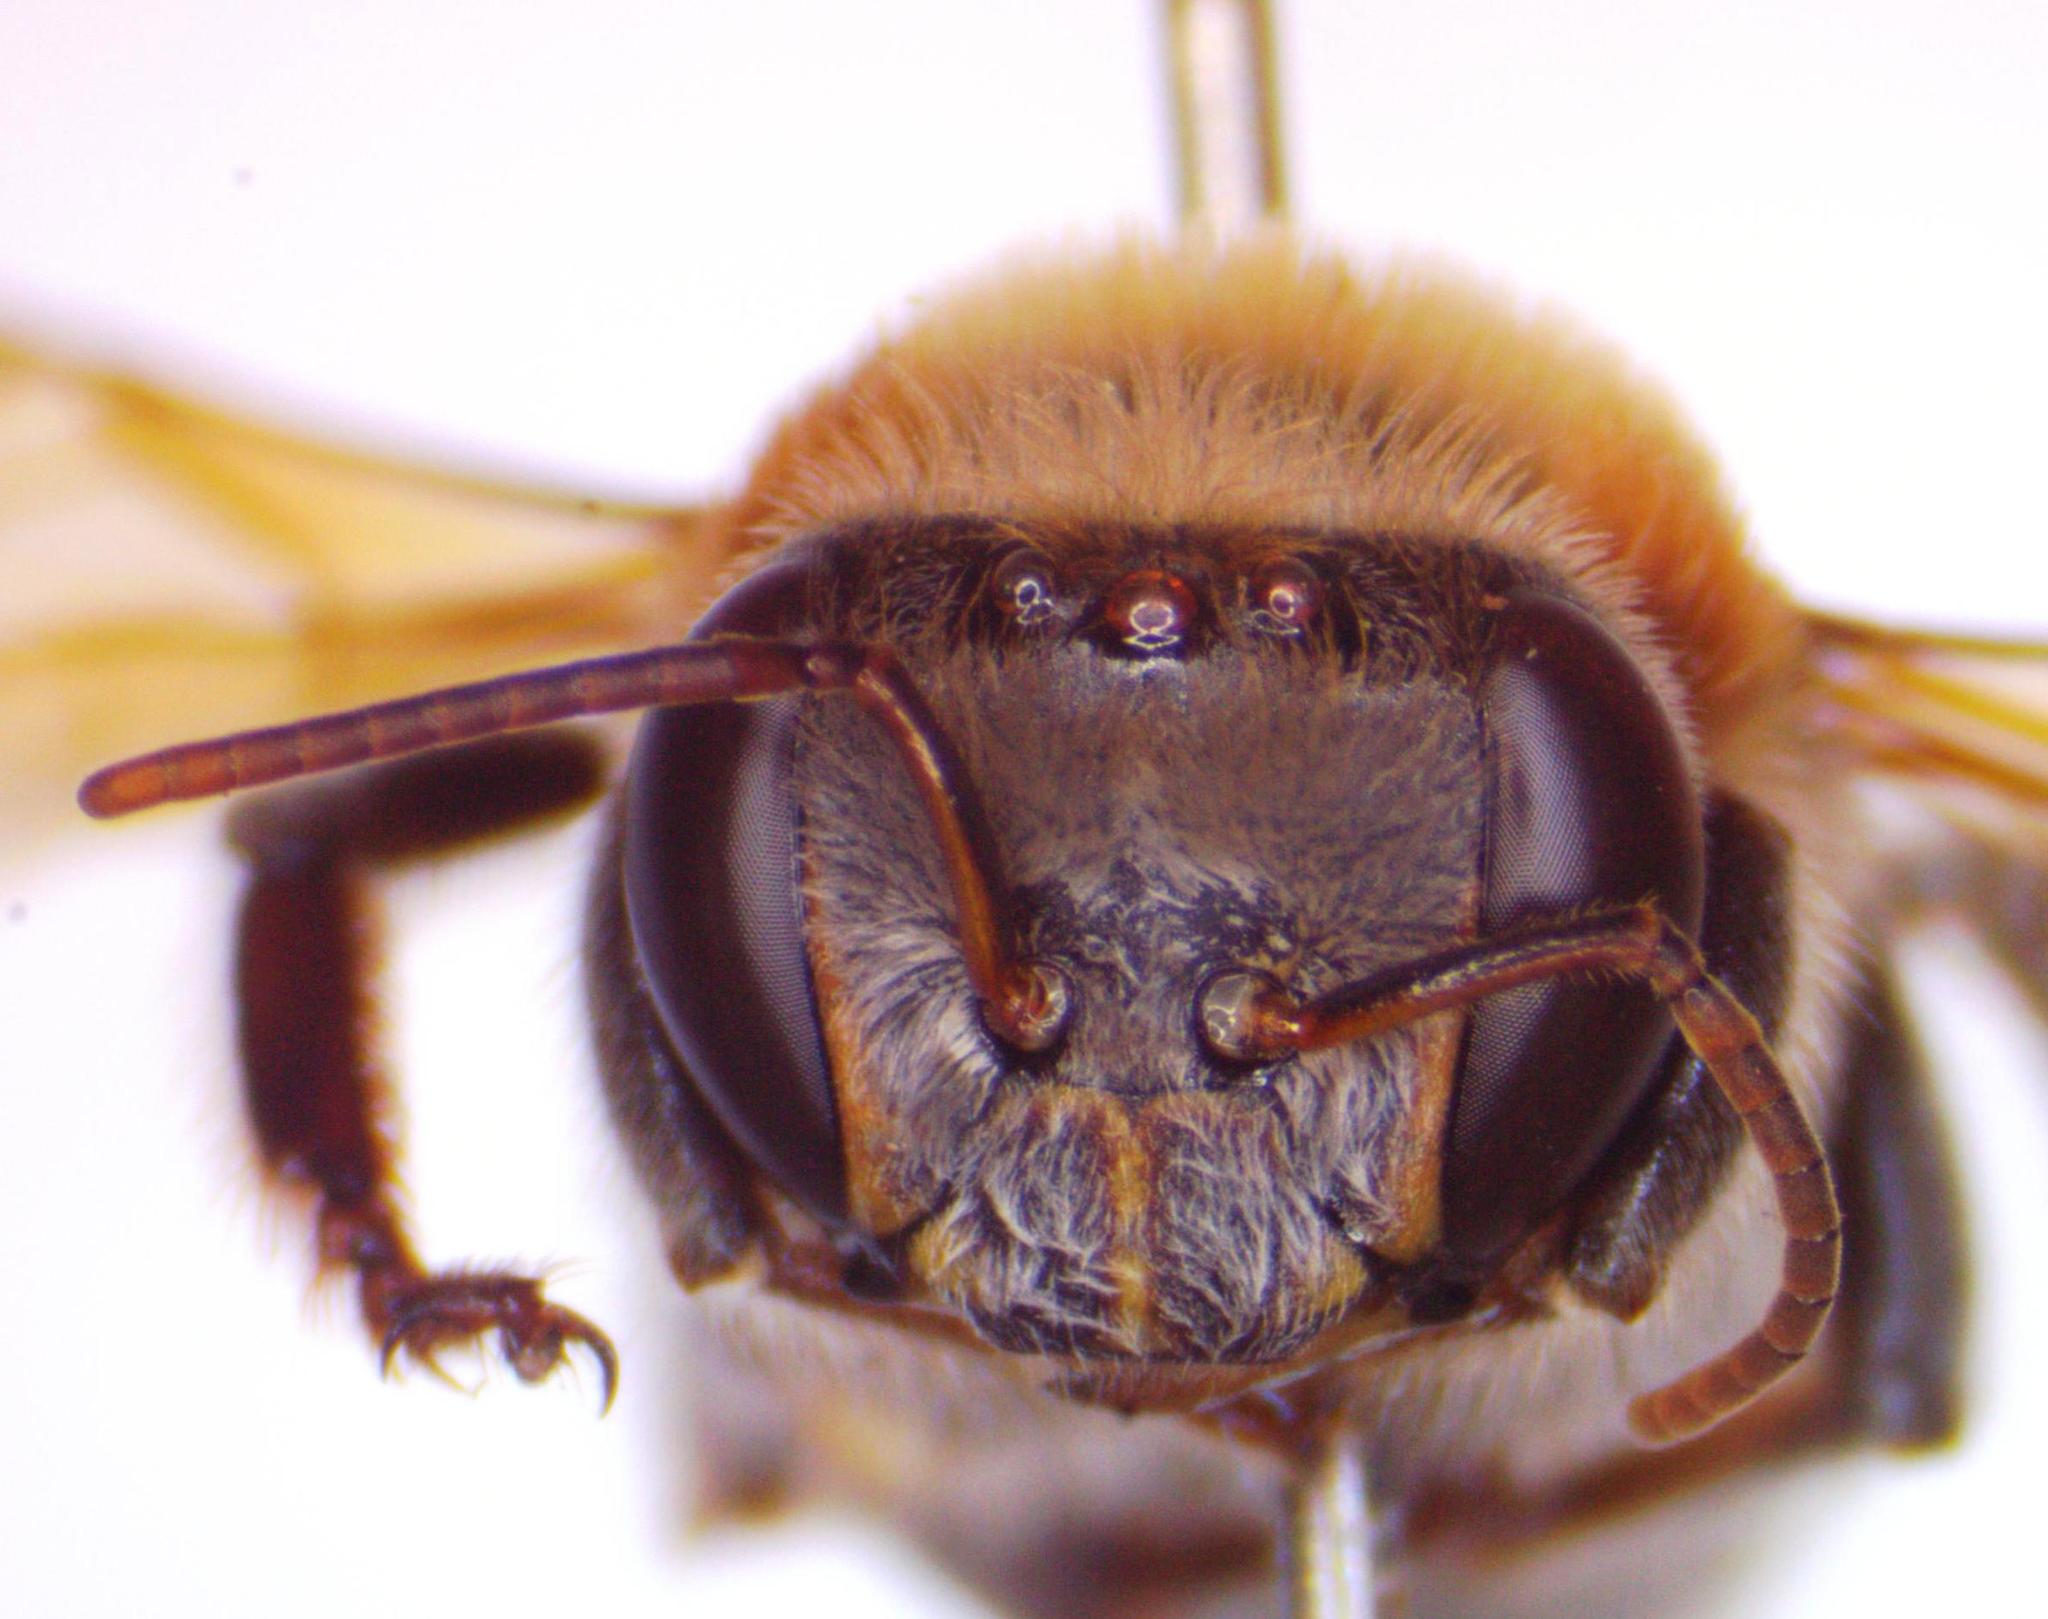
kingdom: Animalia
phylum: Arthropoda
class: Insecta
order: Hymenoptera
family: Apidae
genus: Melipona
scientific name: Melipona beecheii
